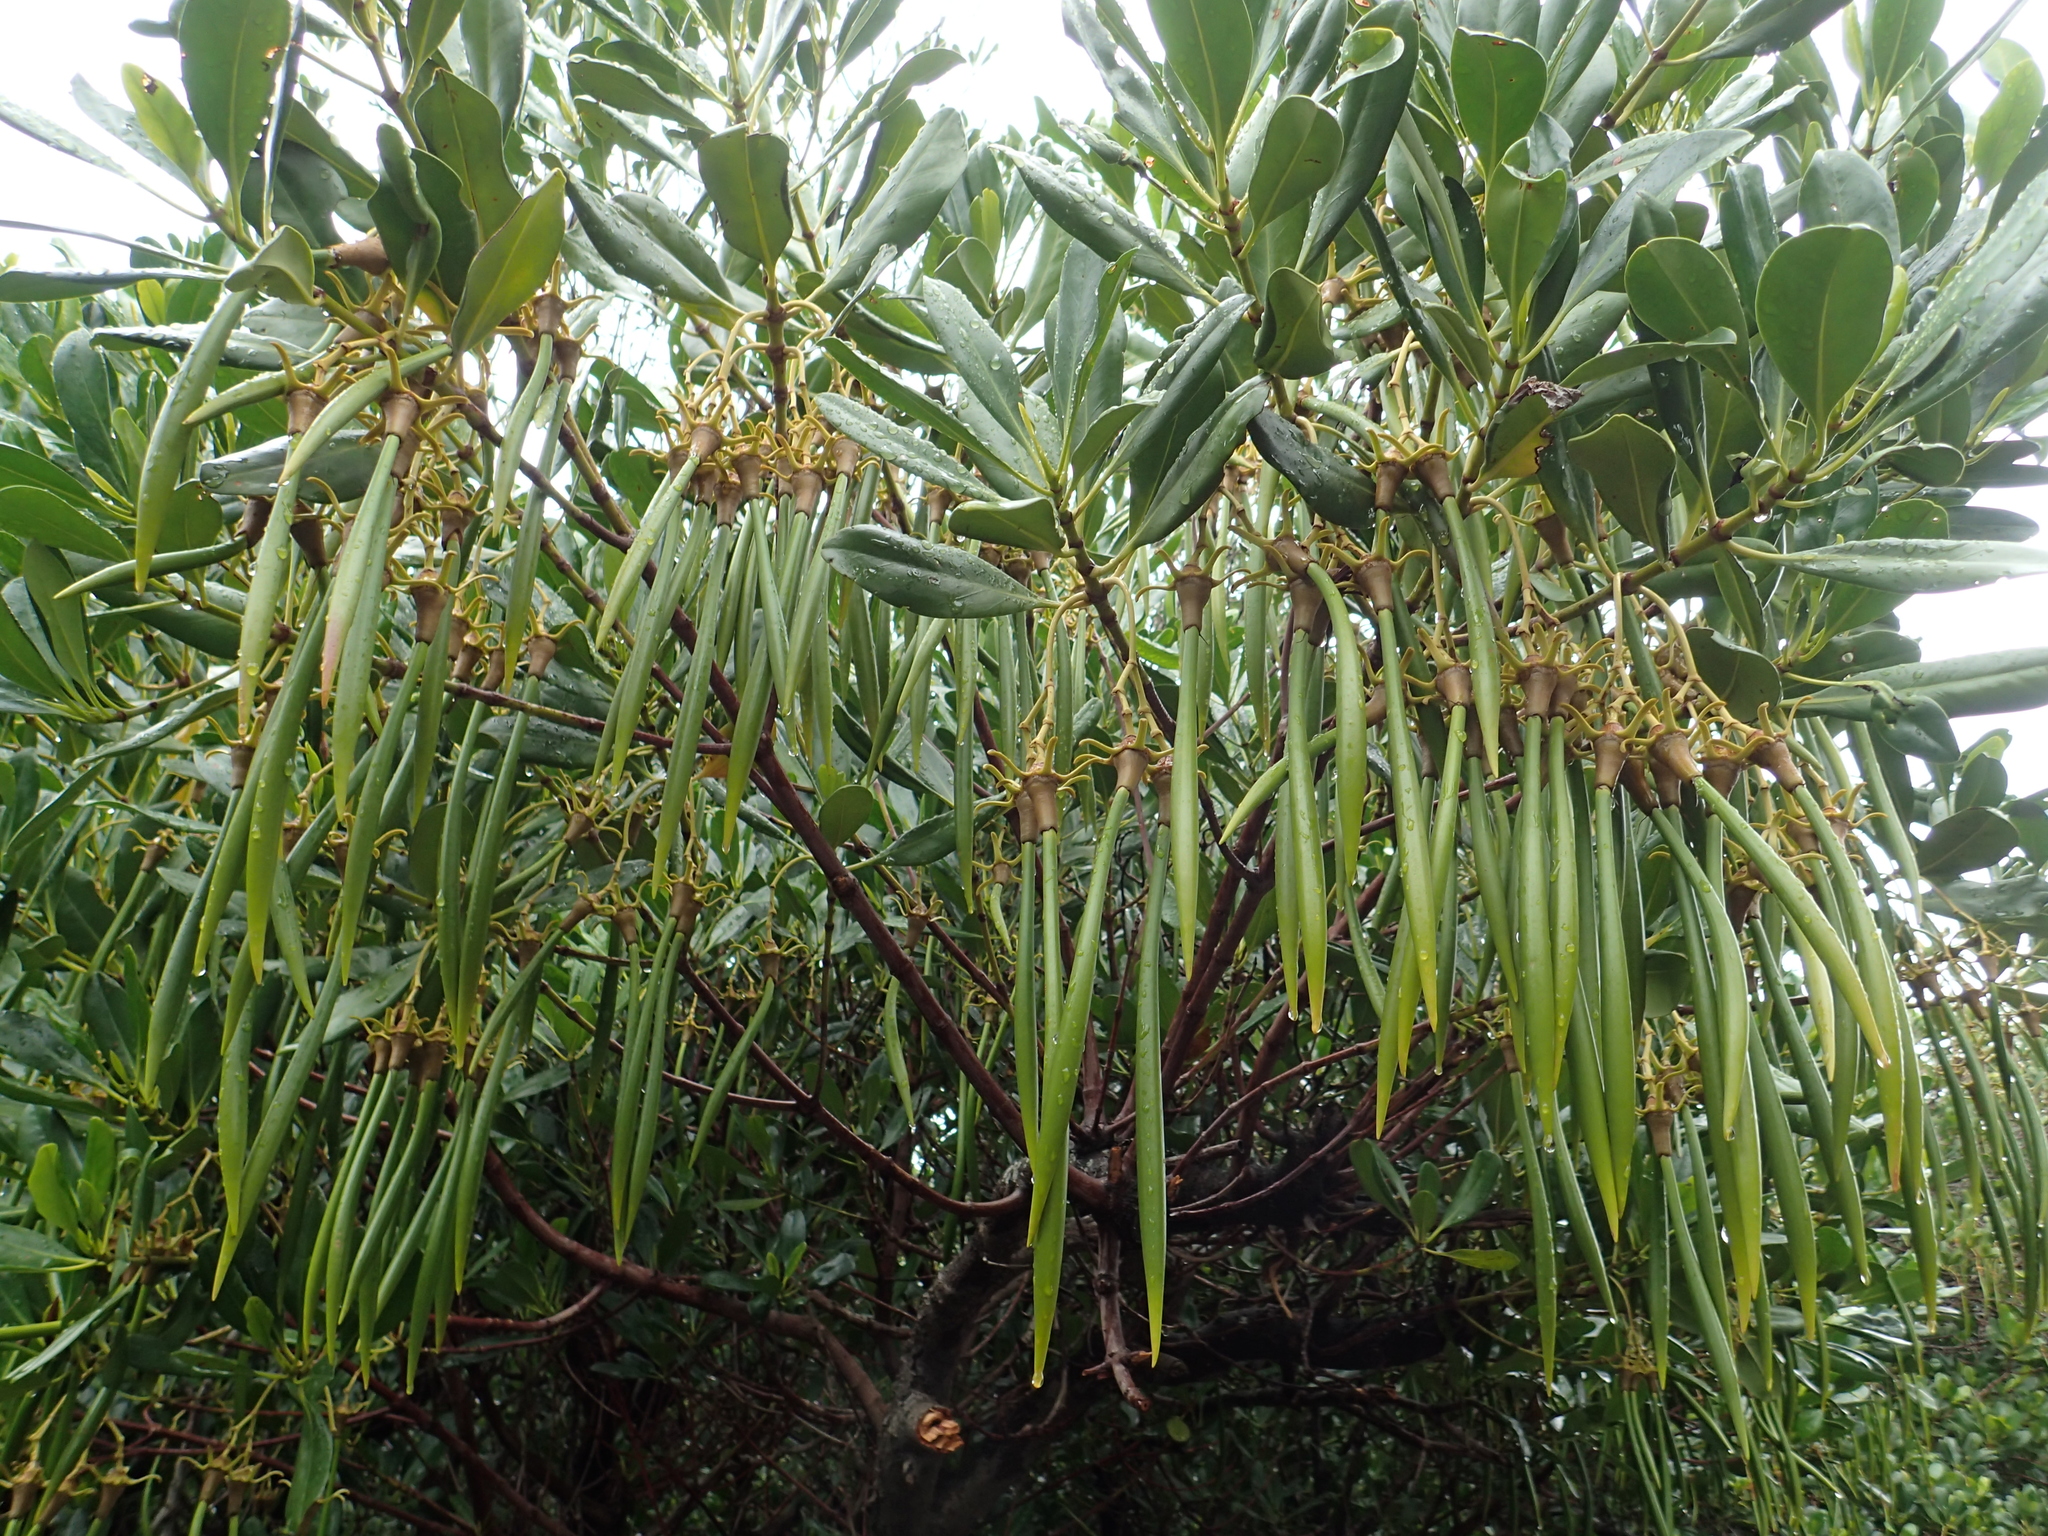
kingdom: Plantae
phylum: Tracheophyta
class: Magnoliopsida
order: Malpighiales
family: Rhizophoraceae
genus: Kandelia
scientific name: Kandelia obovata
